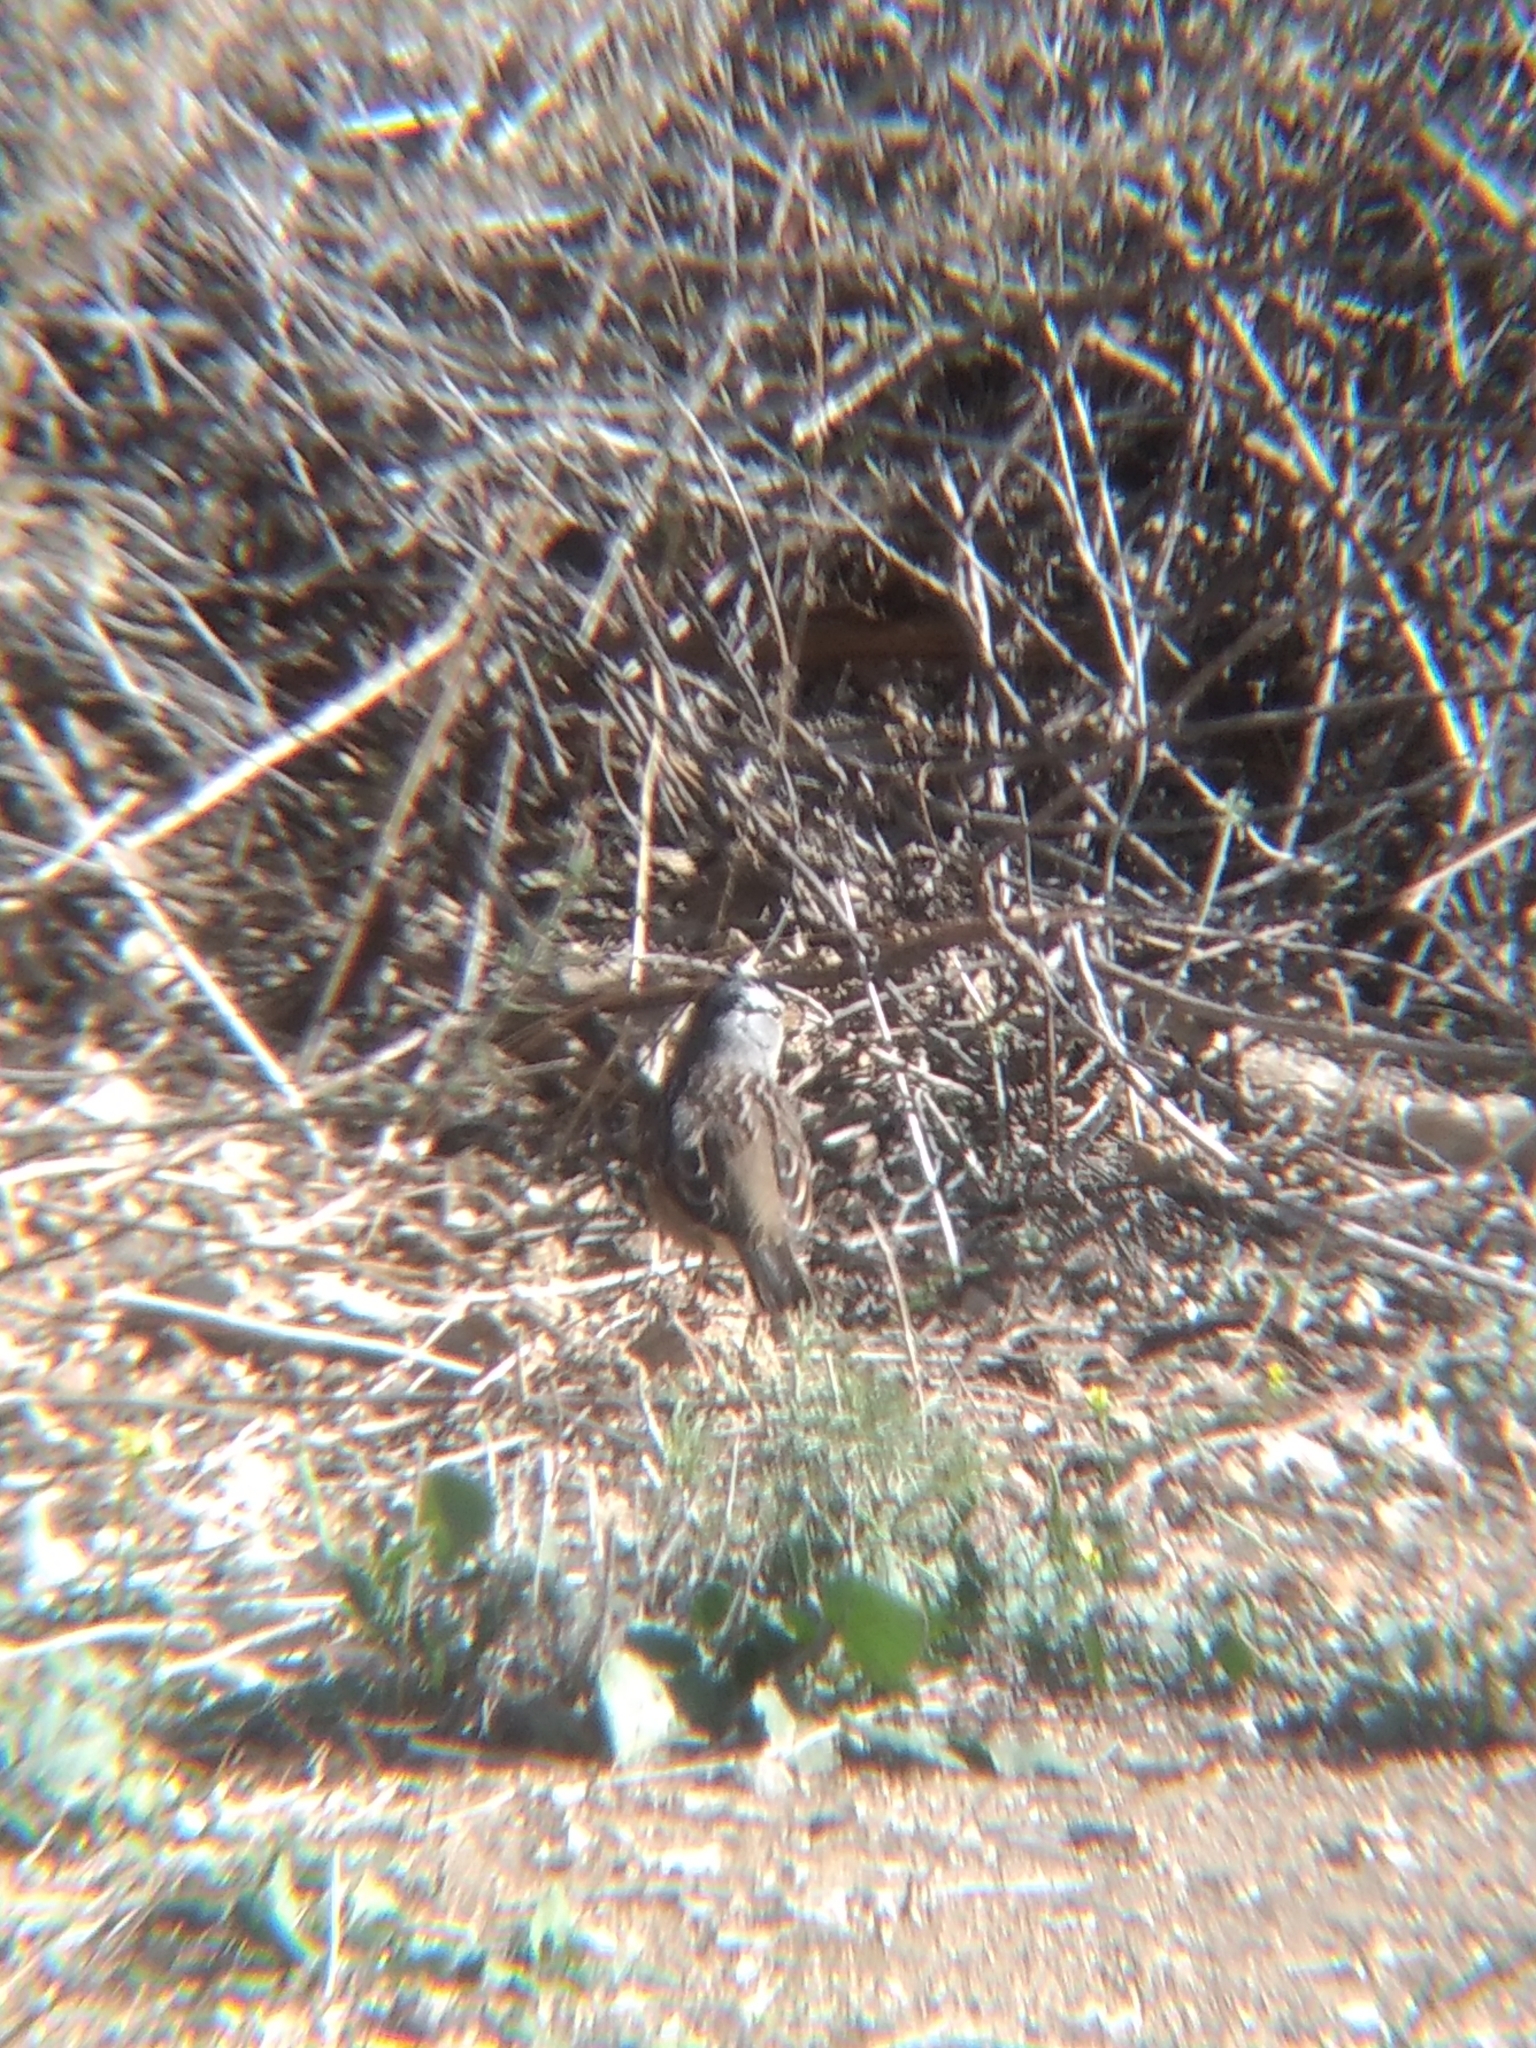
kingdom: Animalia
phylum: Chordata
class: Aves
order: Passeriformes
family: Passerellidae
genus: Zonotrichia
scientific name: Zonotrichia leucophrys
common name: White-crowned sparrow
